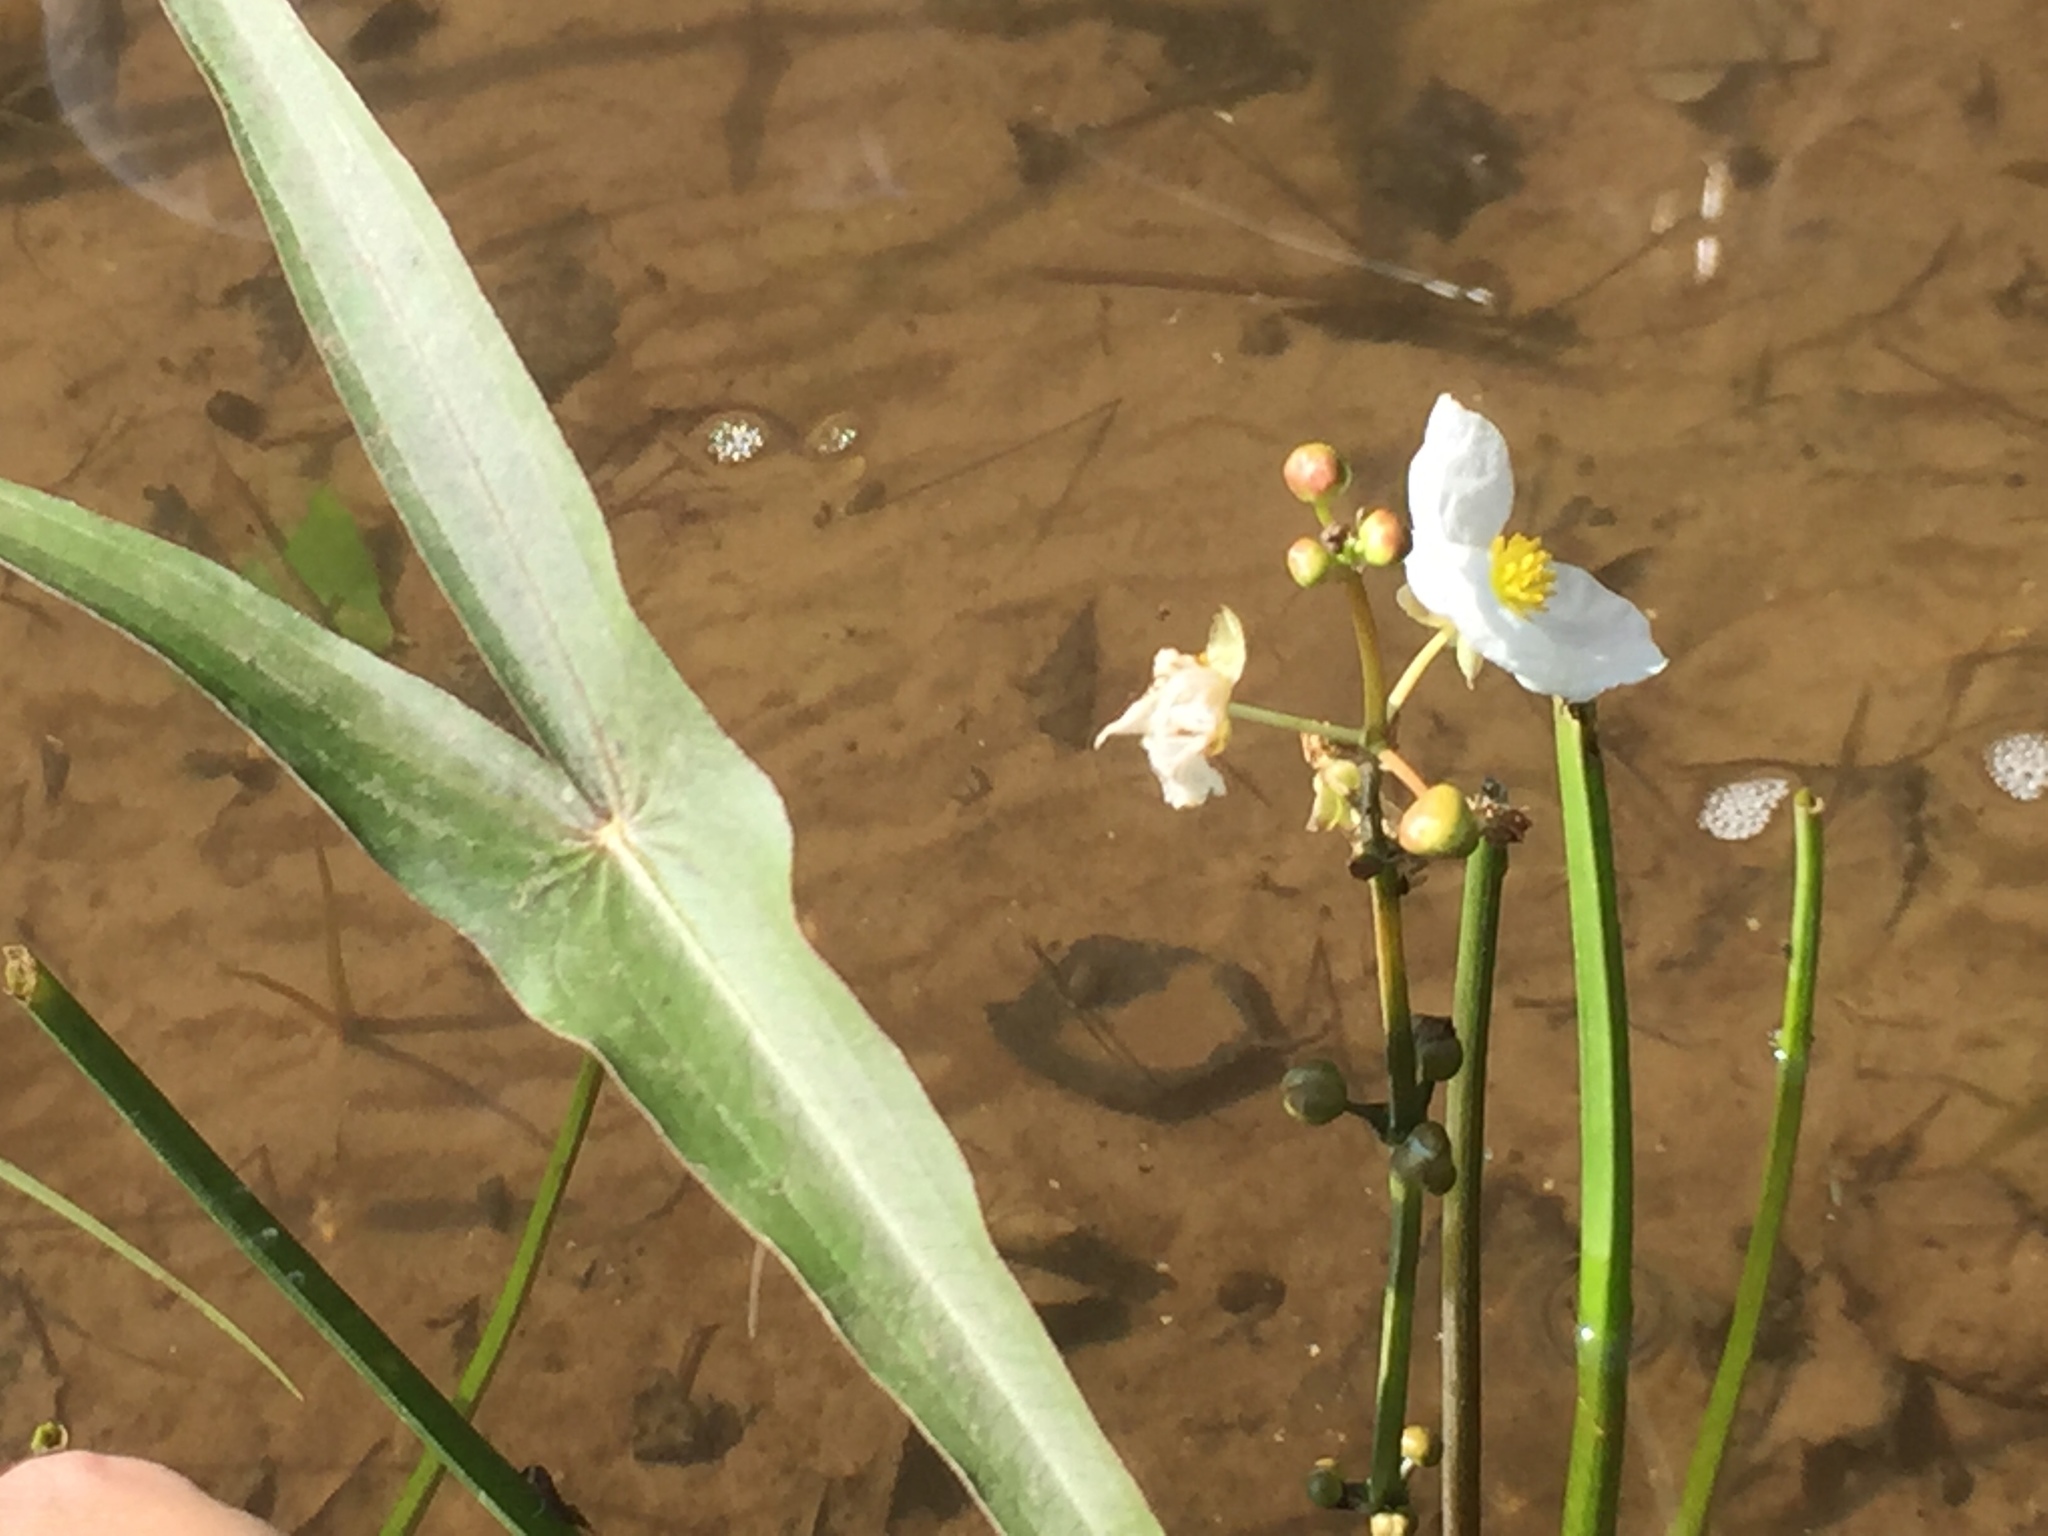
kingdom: Plantae
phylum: Tracheophyta
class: Liliopsida
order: Alismatales
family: Alismataceae
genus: Sagittaria
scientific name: Sagittaria latifolia
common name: Duck-potato
